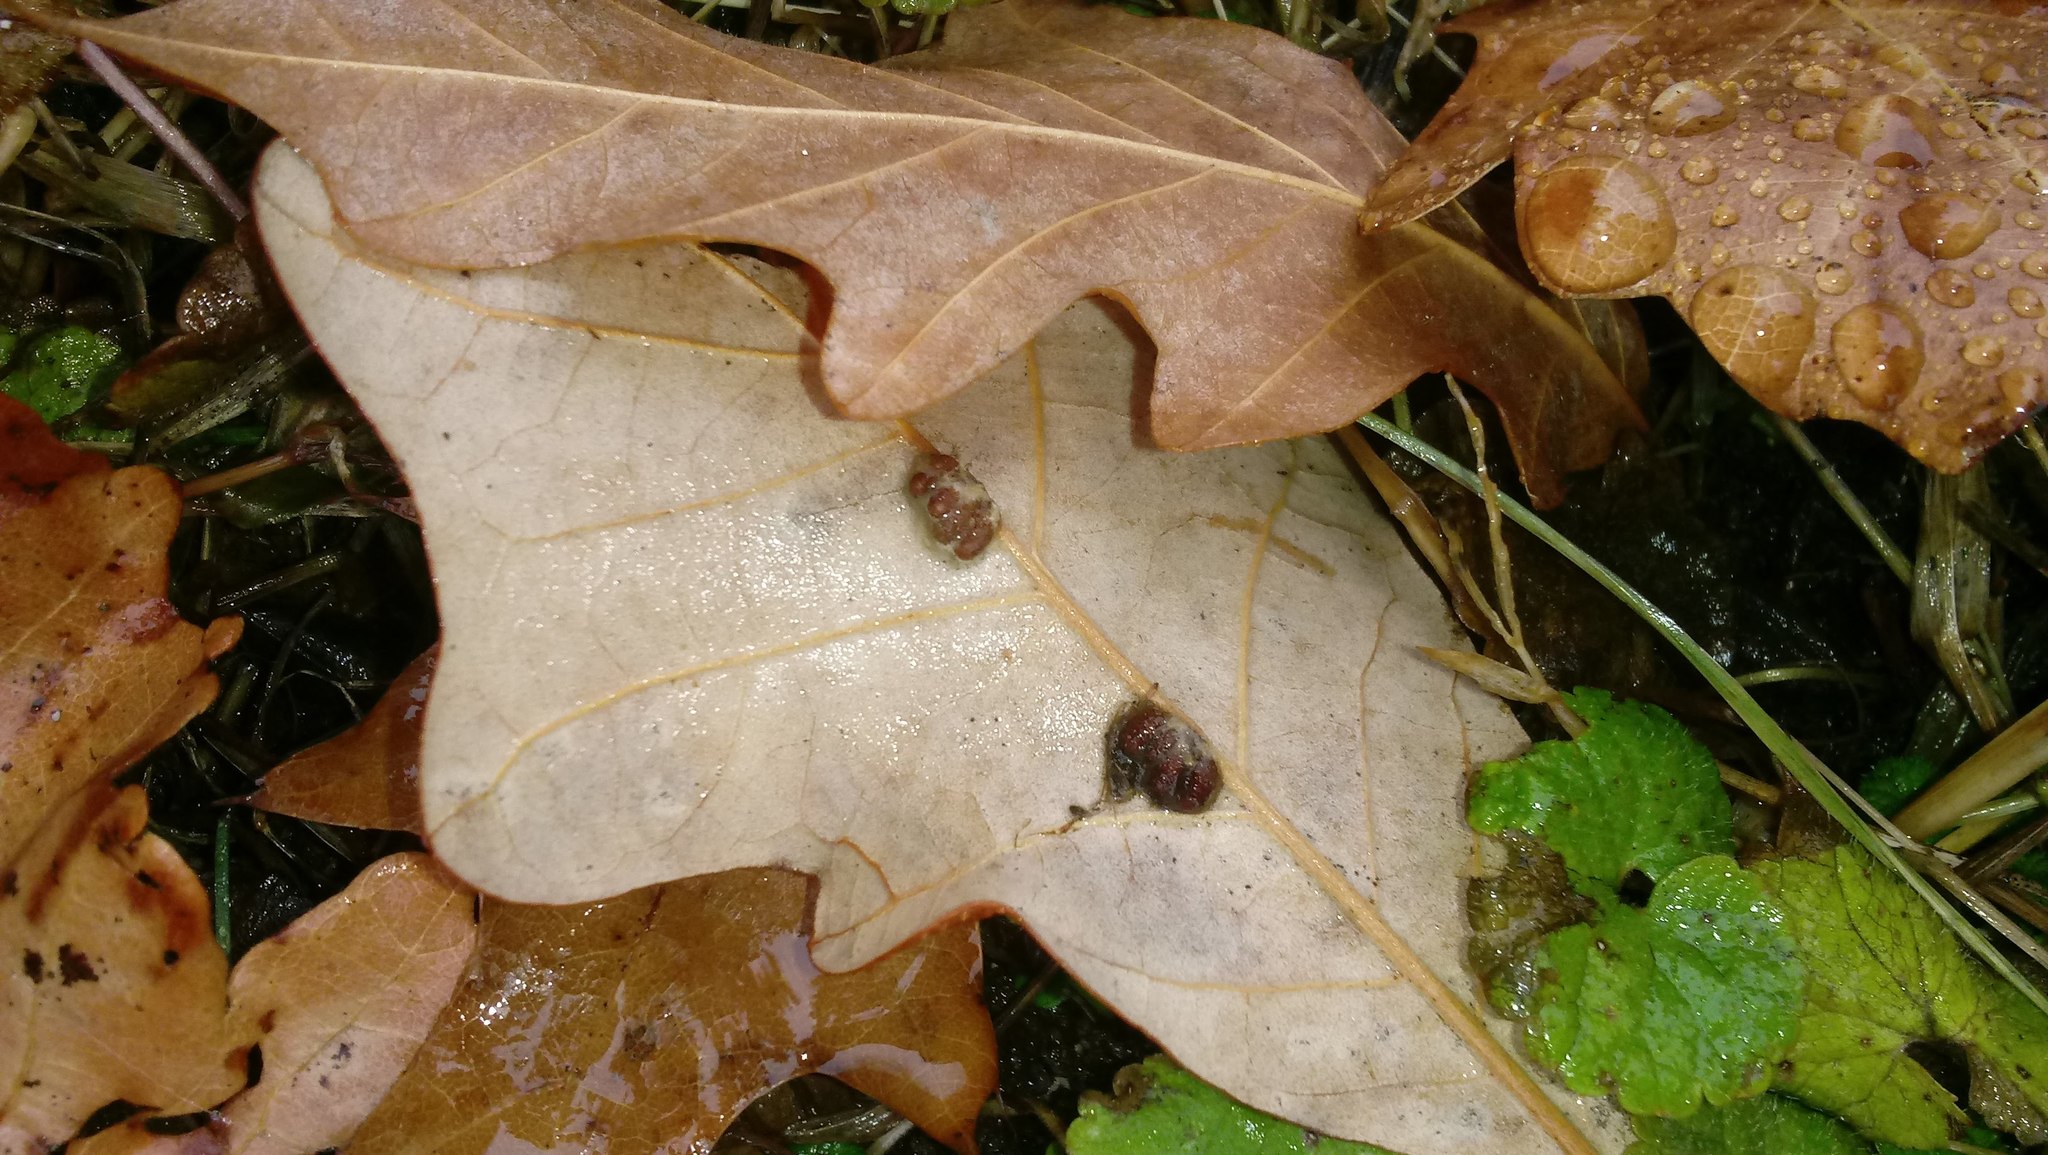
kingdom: Animalia
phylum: Arthropoda
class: Insecta
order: Hymenoptera
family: Cynipidae
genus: Andricus
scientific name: Andricus Druon ignotum
